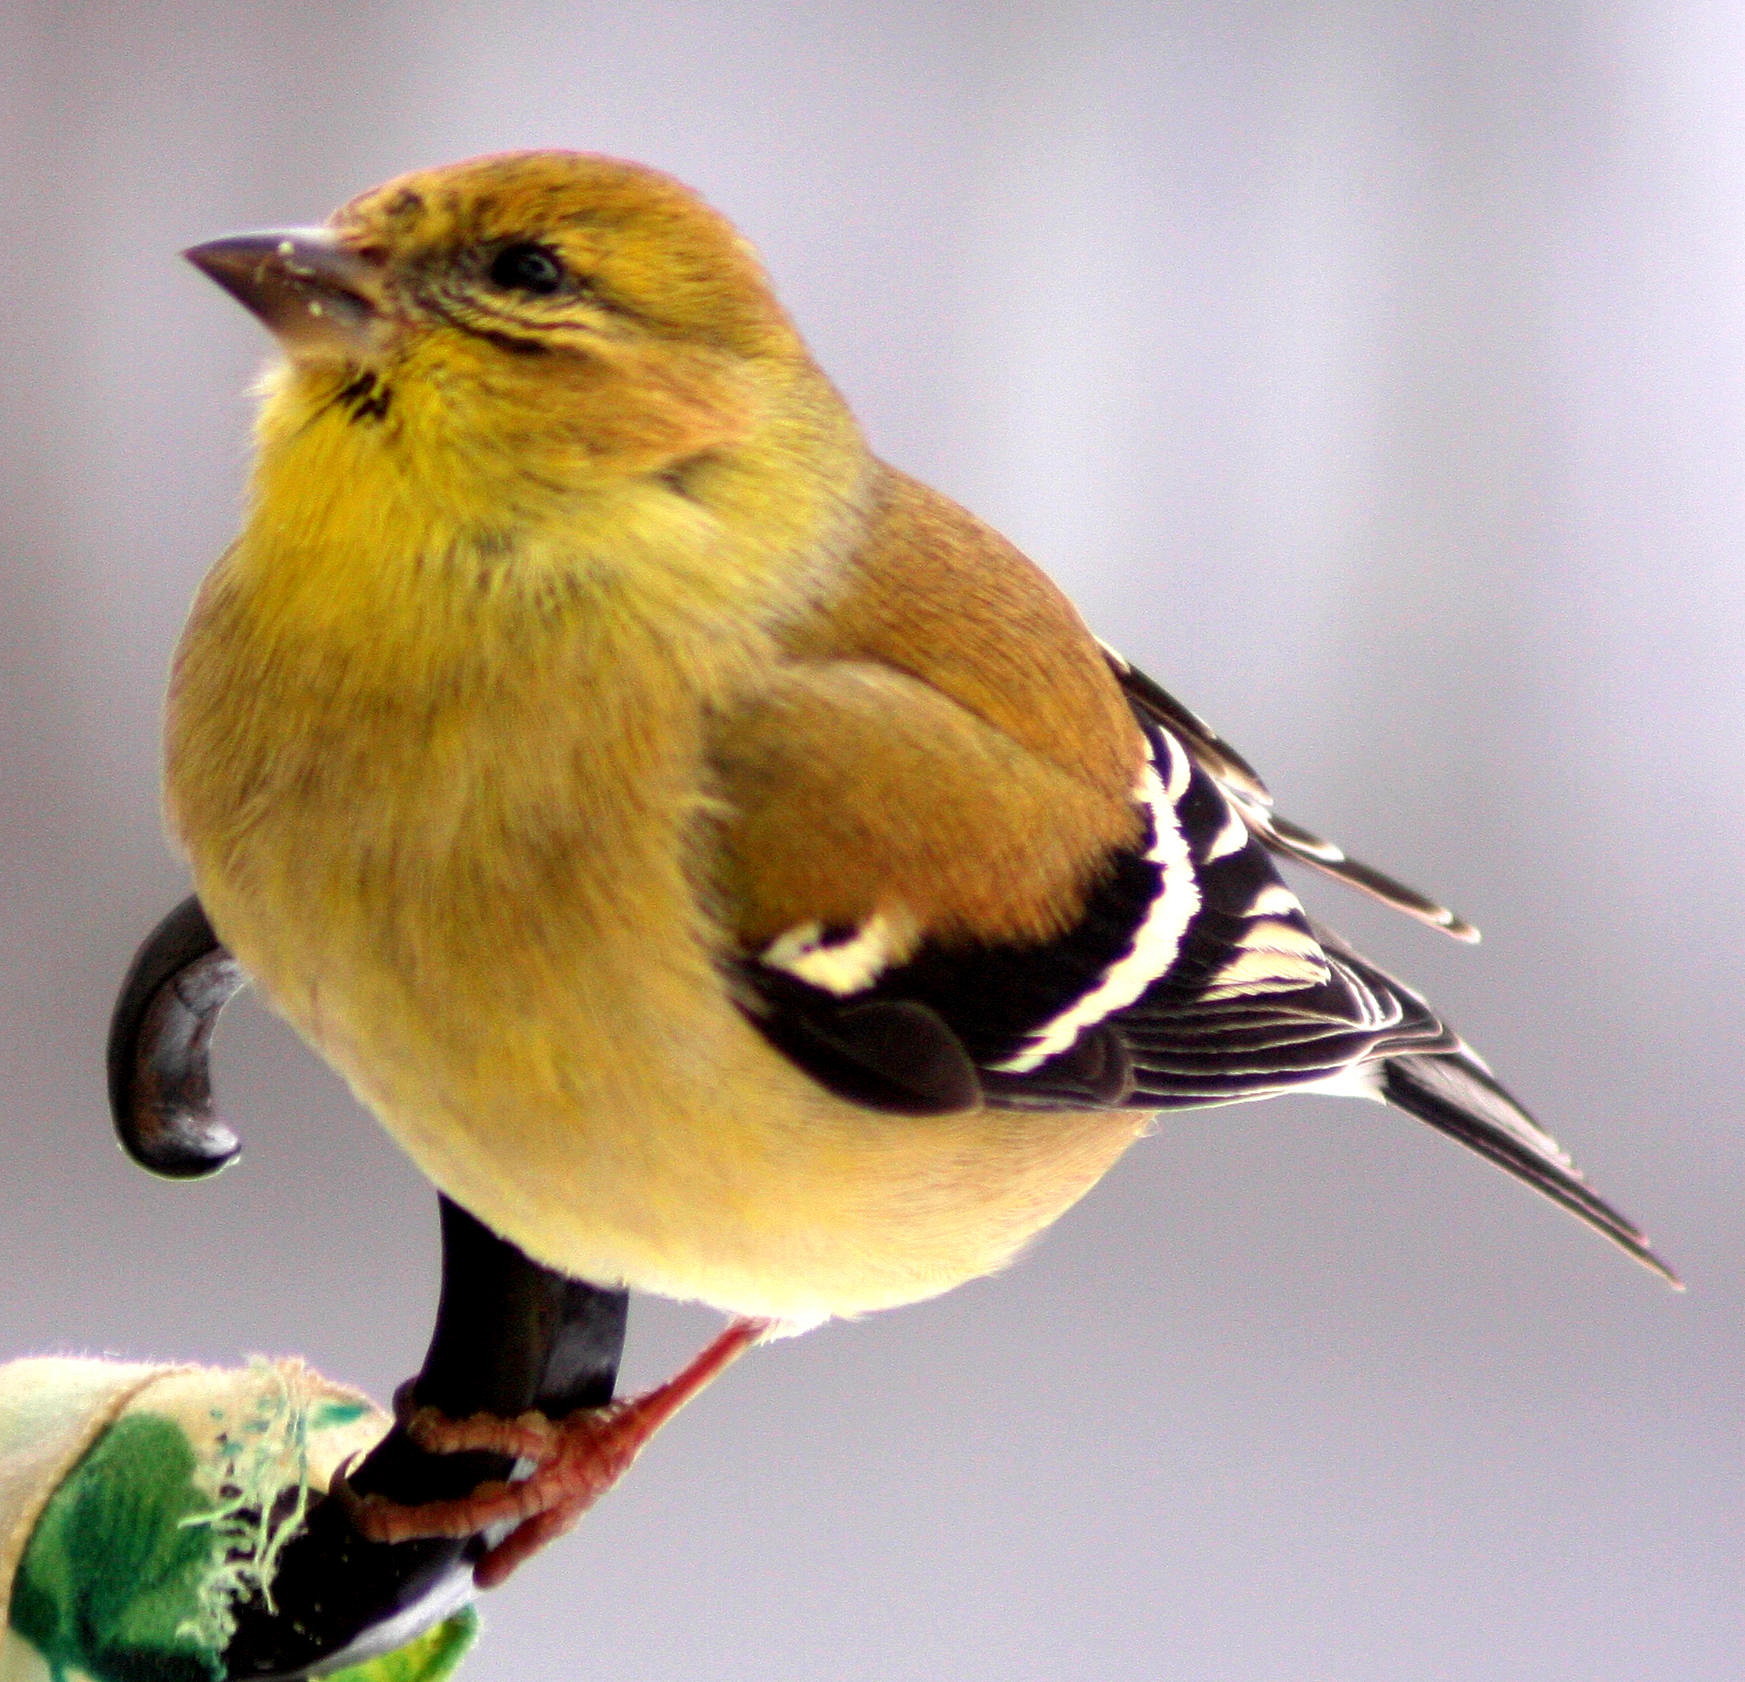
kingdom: Animalia
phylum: Chordata
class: Aves
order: Passeriformes
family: Fringillidae
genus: Spinus
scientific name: Spinus tristis
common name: American goldfinch
